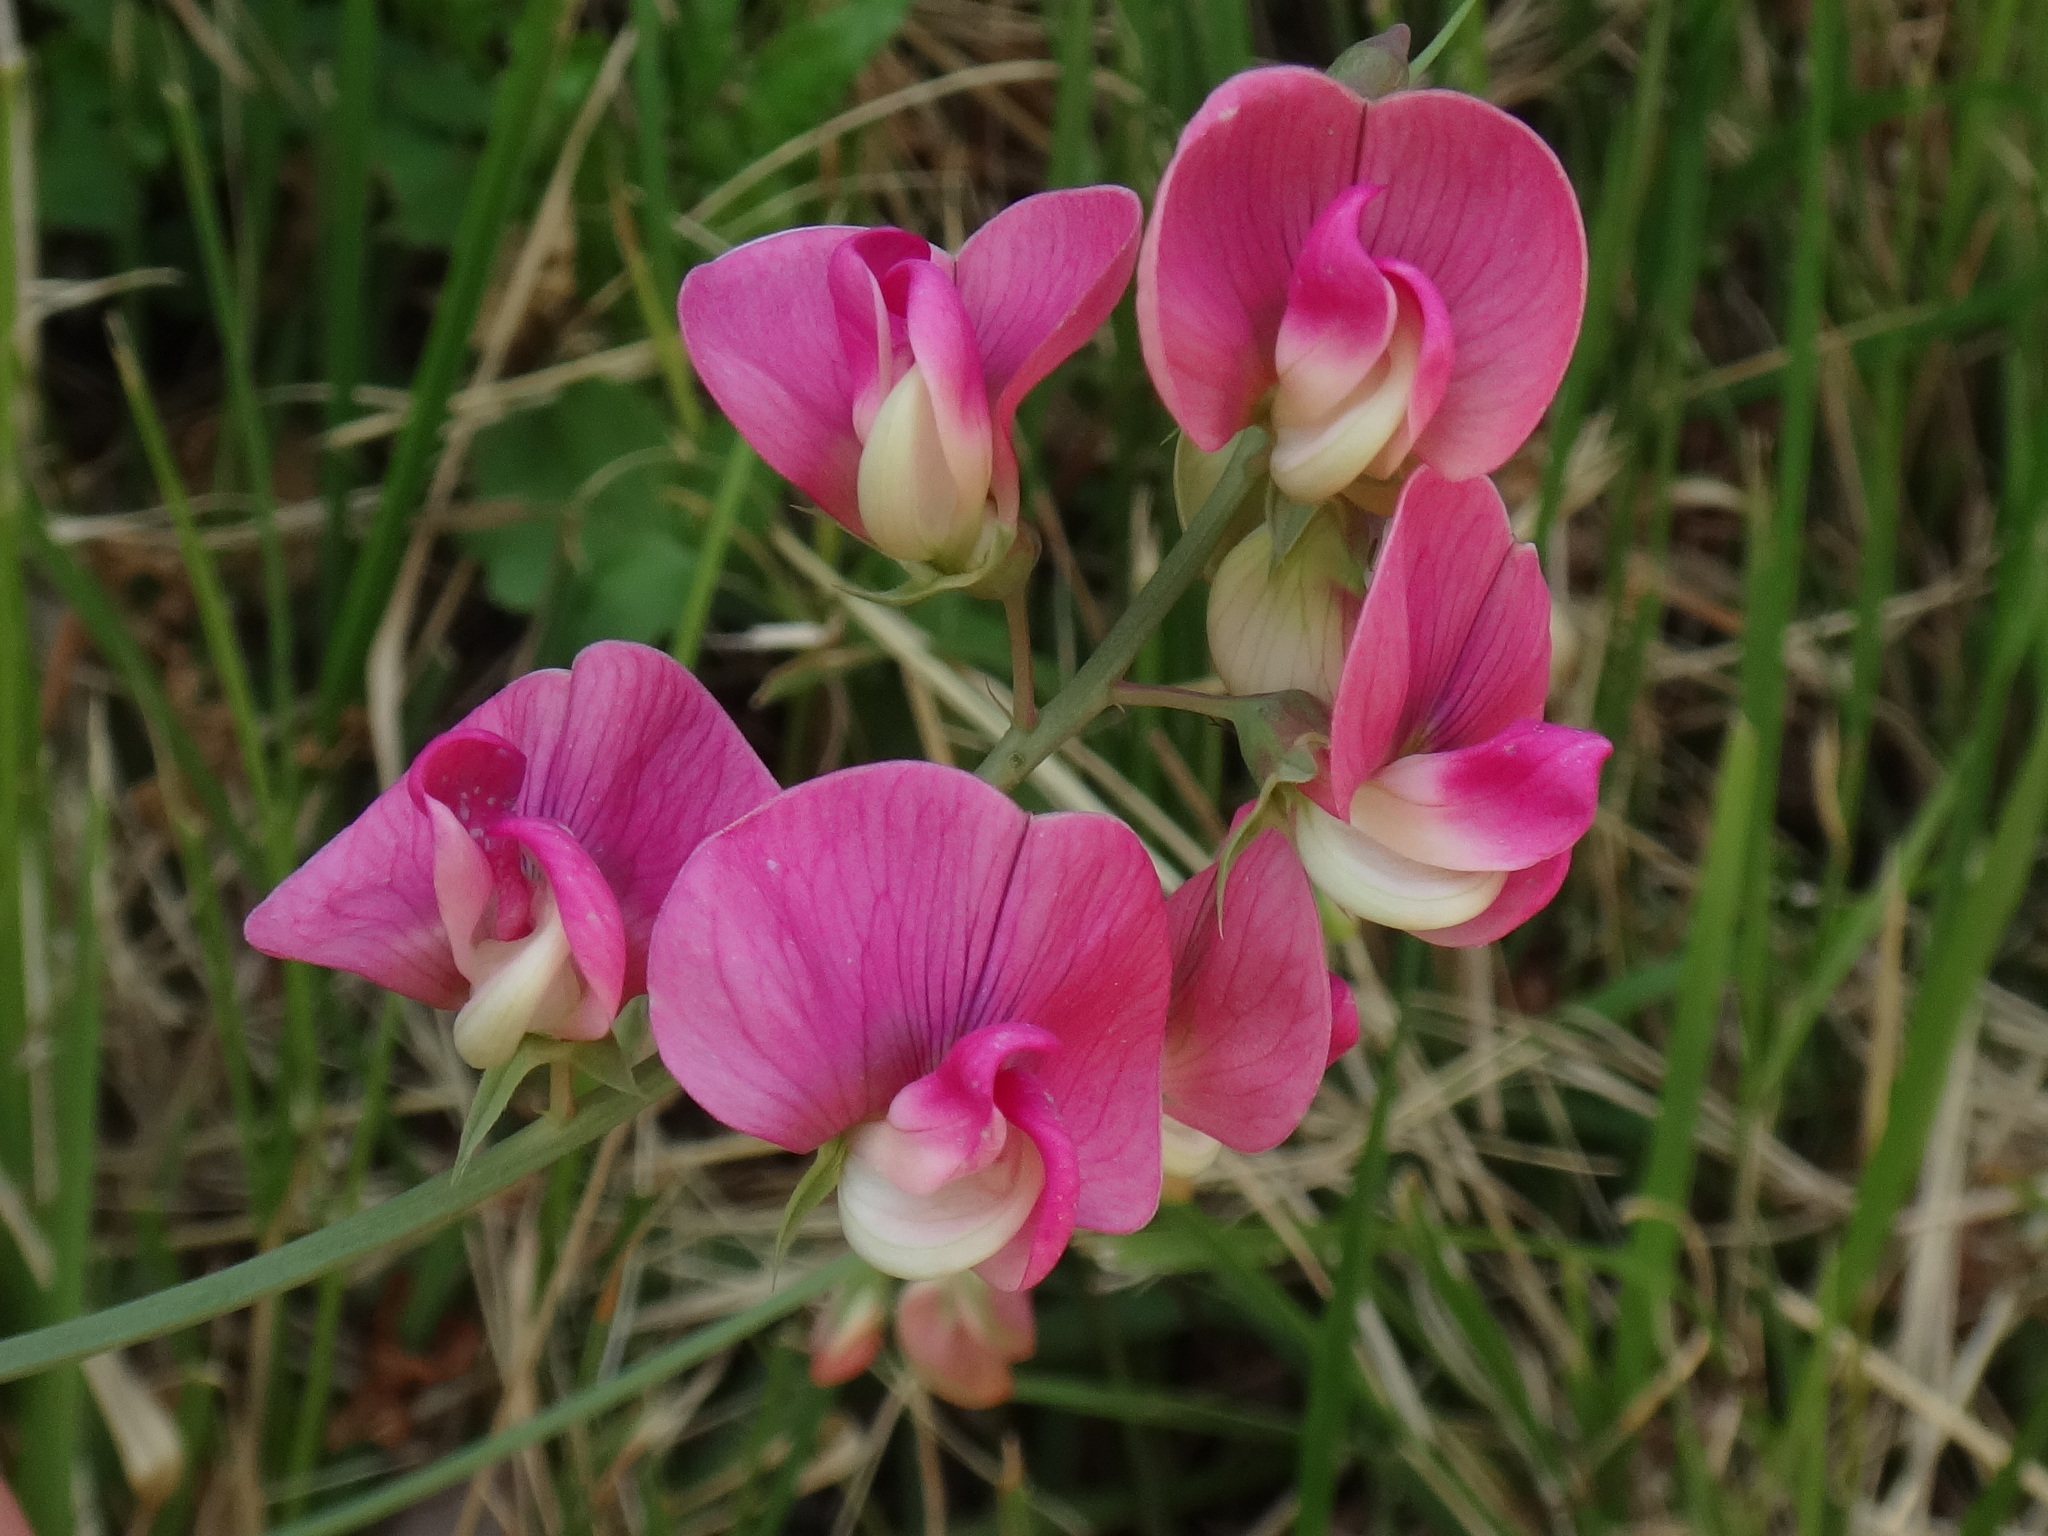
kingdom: Plantae
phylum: Tracheophyta
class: Magnoliopsida
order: Fabales
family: Fabaceae
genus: Lathyrus
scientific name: Lathyrus latifolius
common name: Perennial pea
